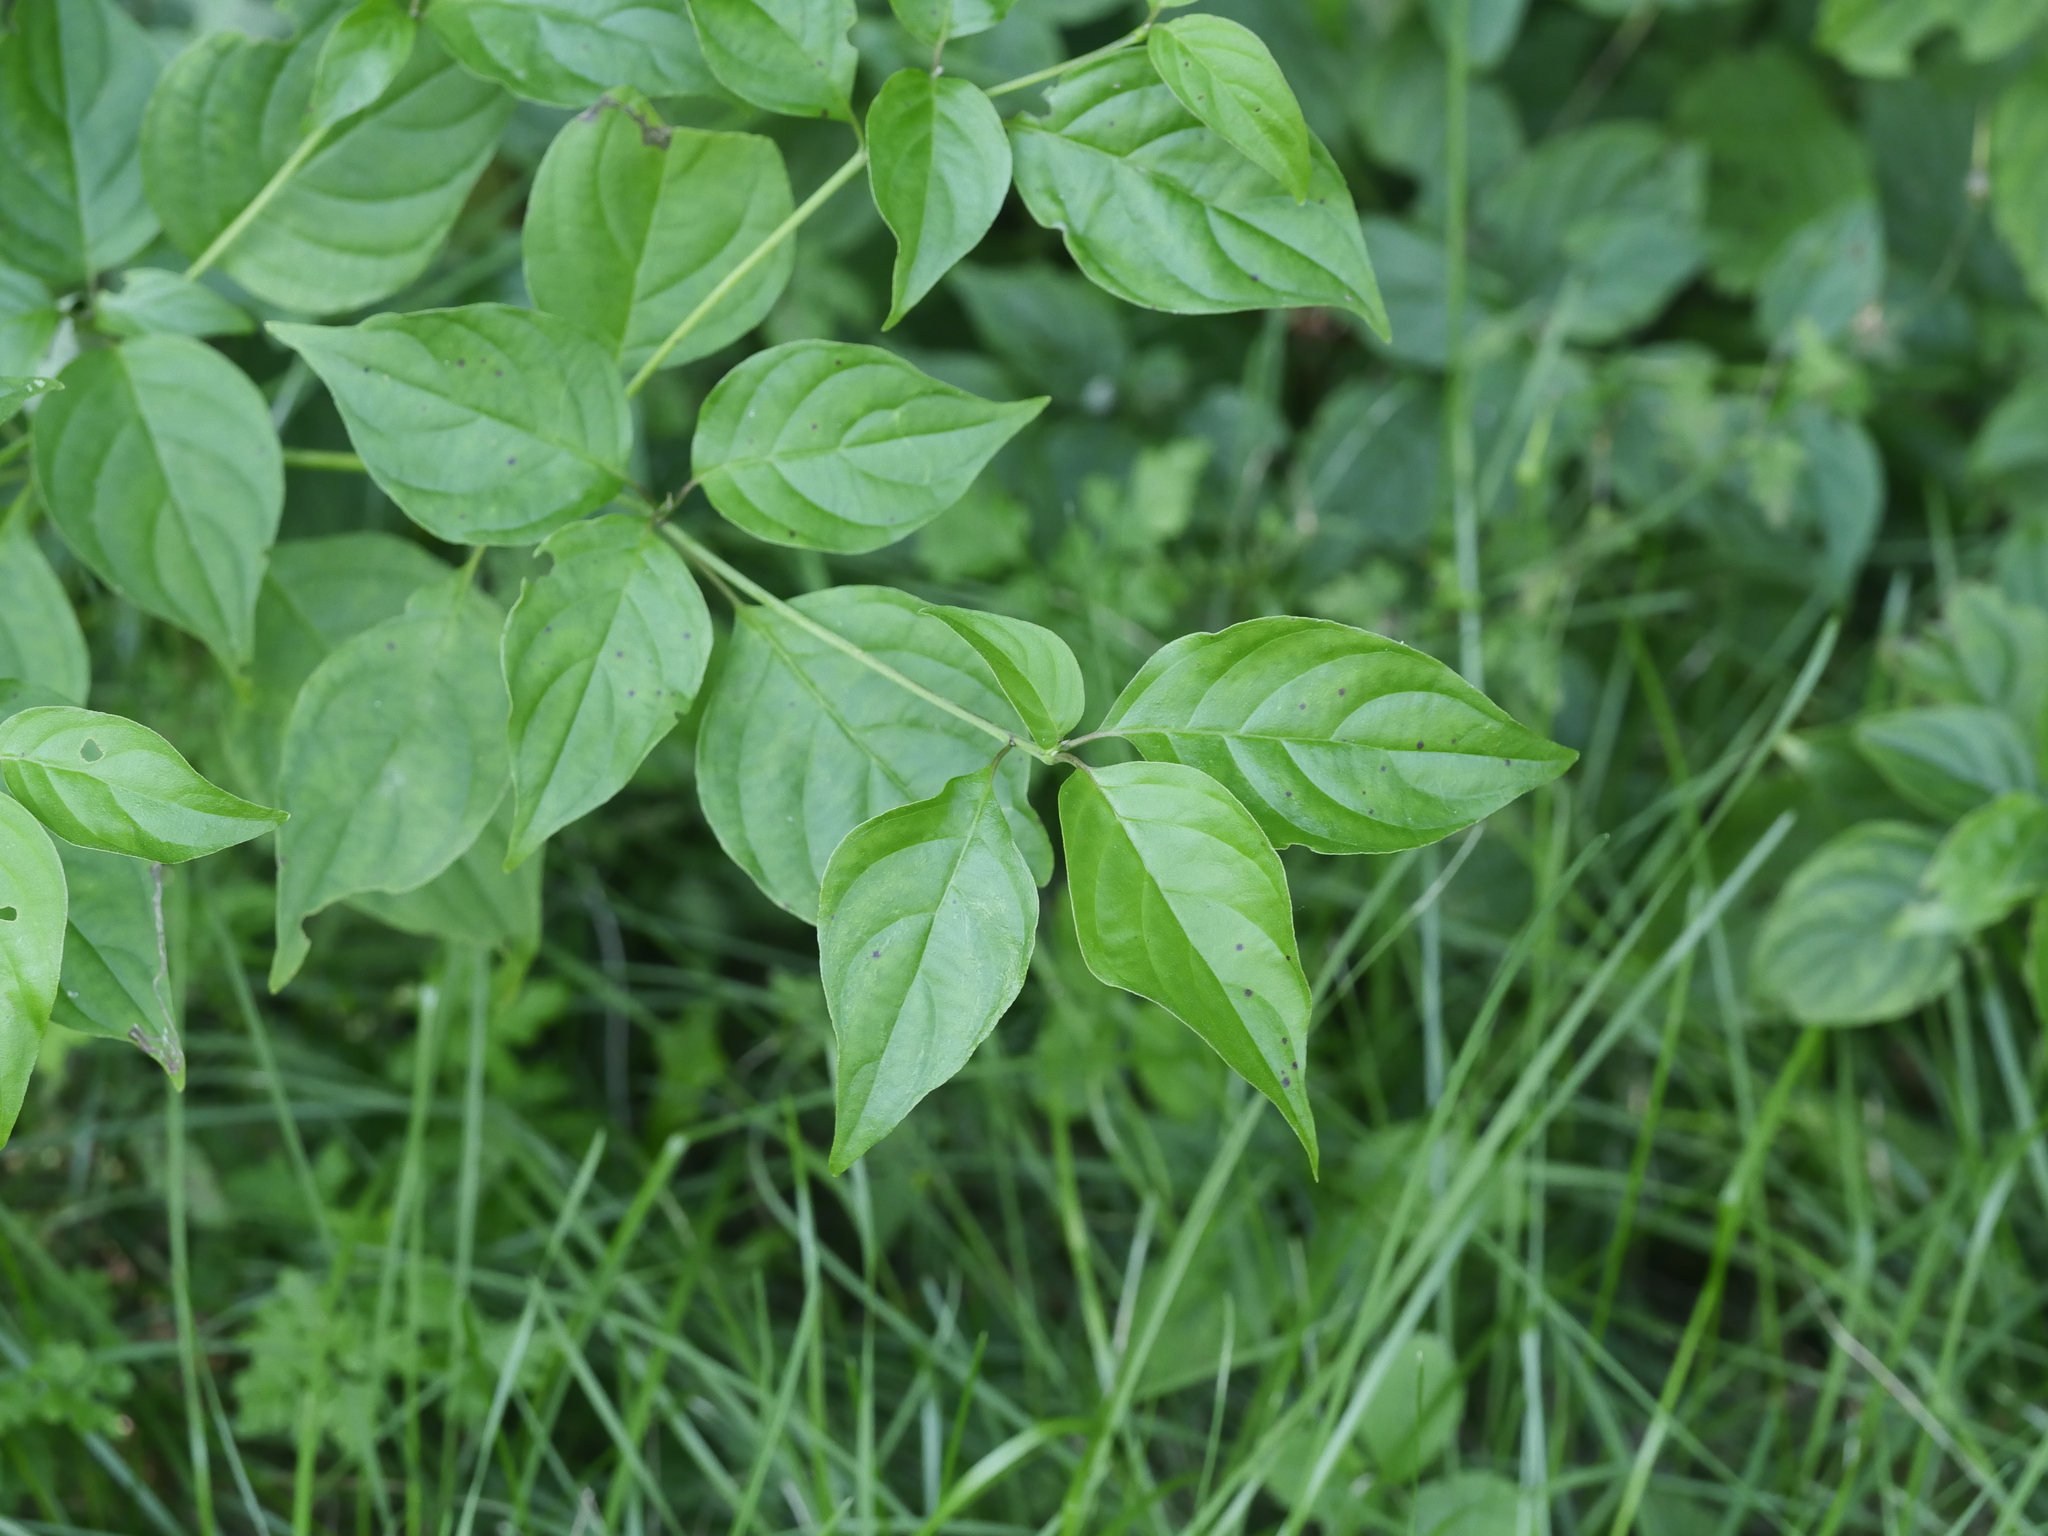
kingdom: Plantae
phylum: Tracheophyta
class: Magnoliopsida
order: Cornales
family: Cornaceae
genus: Cornus
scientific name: Cornus alternifolia
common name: Pagoda dogwood
